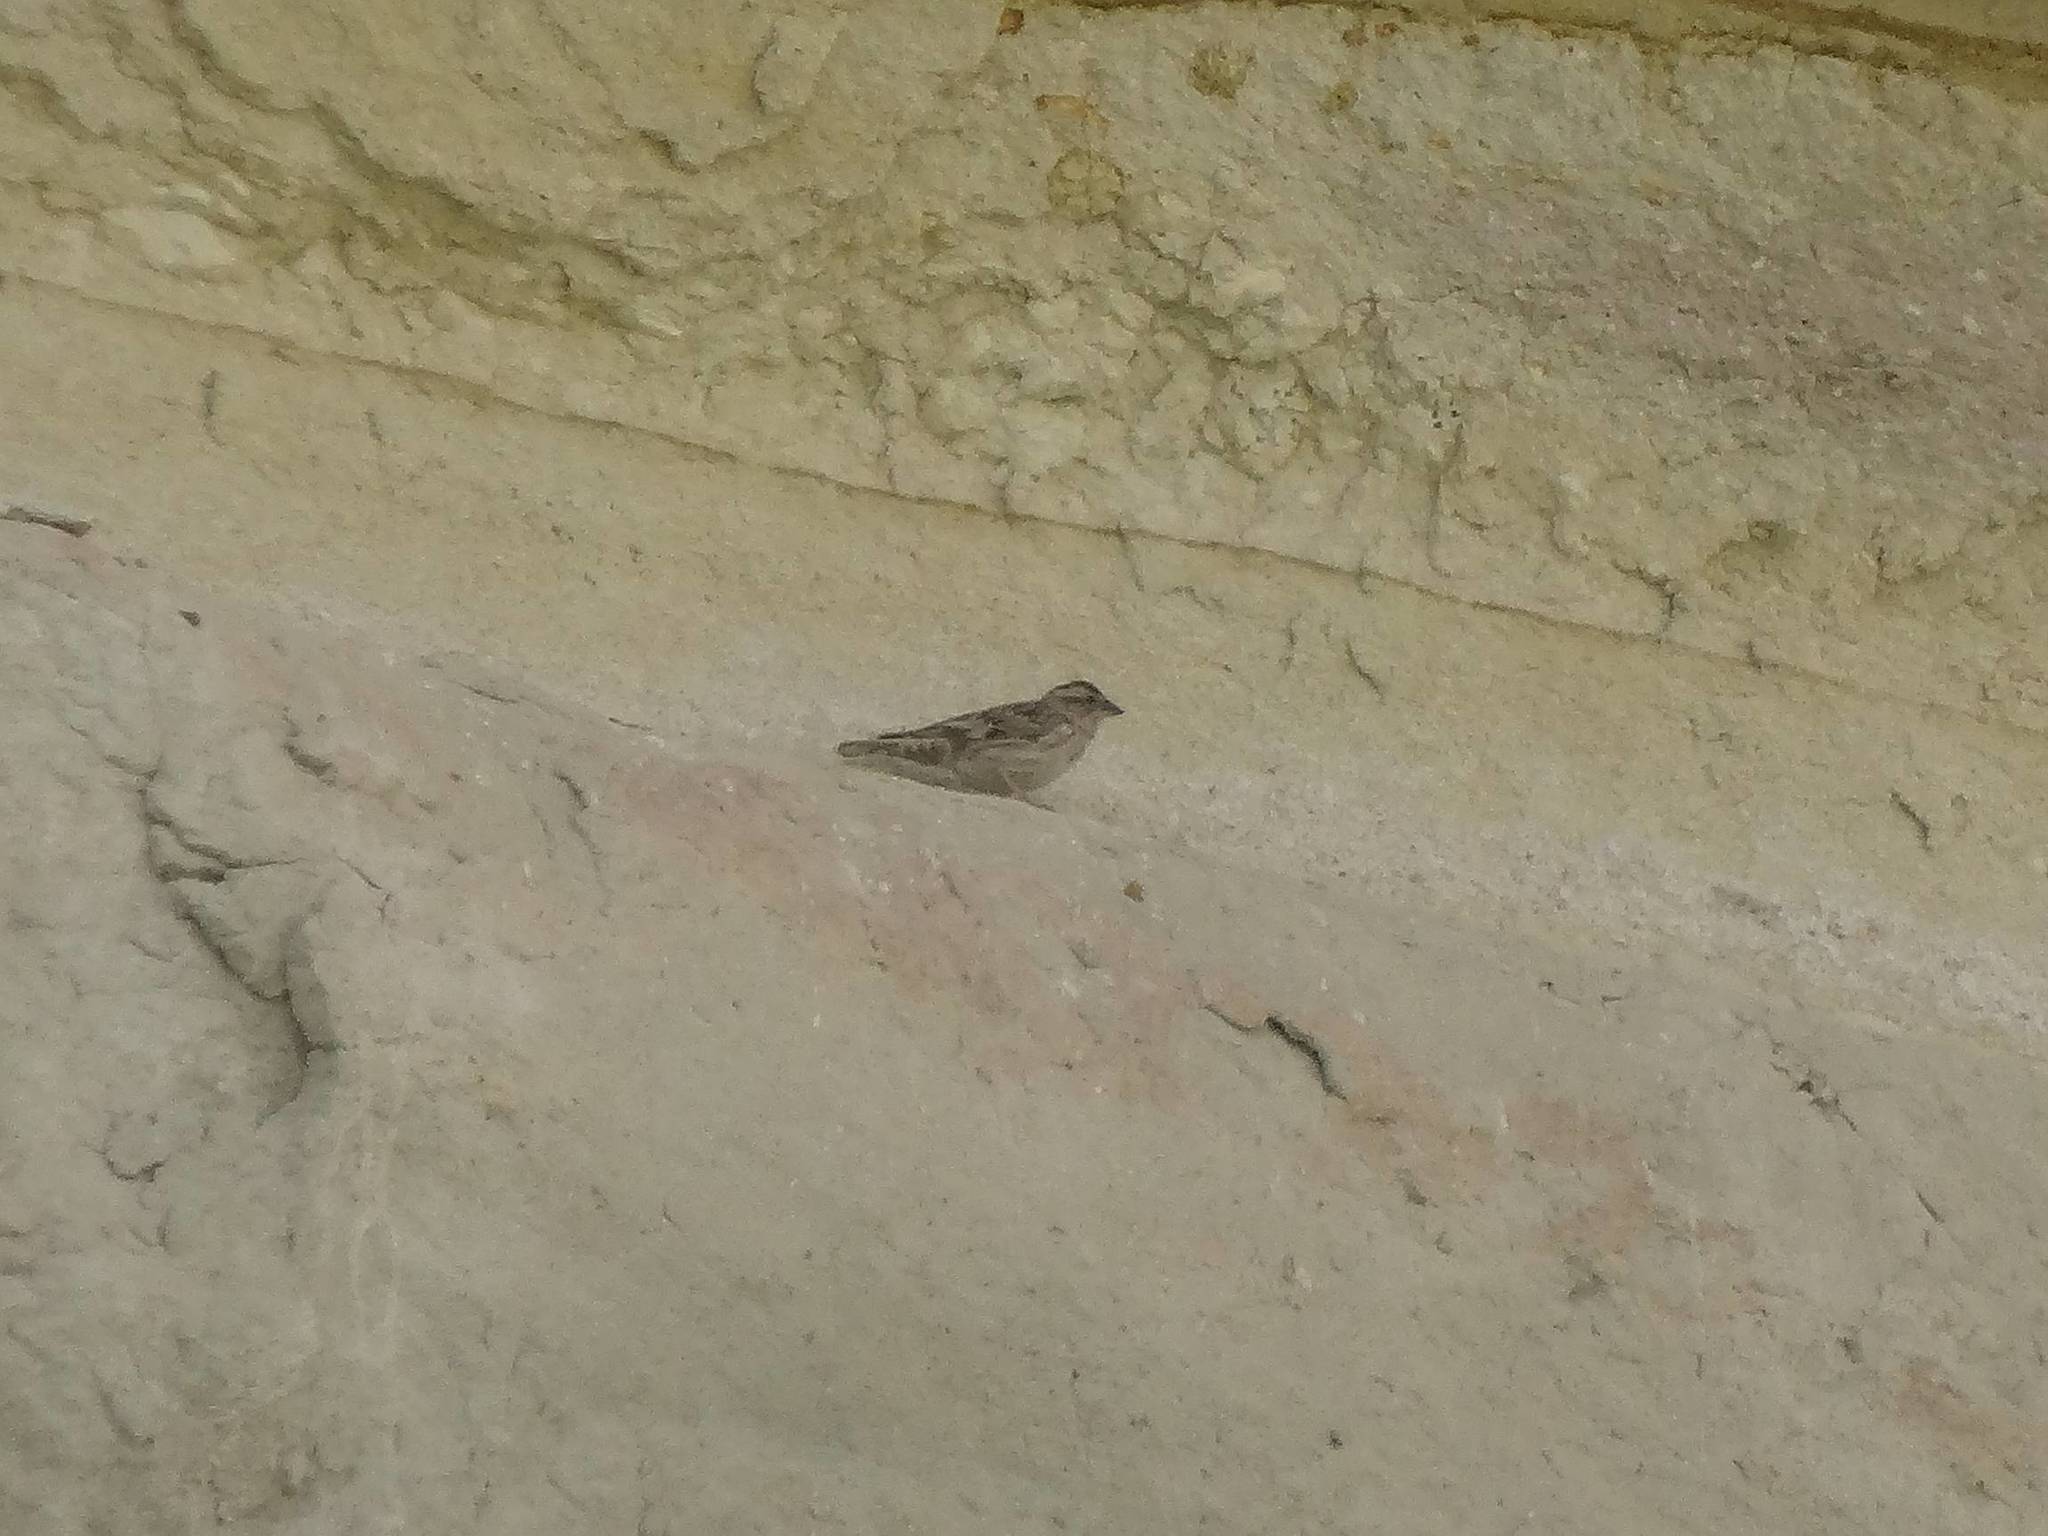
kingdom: Animalia
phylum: Chordata
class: Aves
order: Passeriformes
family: Passeridae
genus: Petronia
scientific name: Petronia petronia
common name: Rock sparrow
